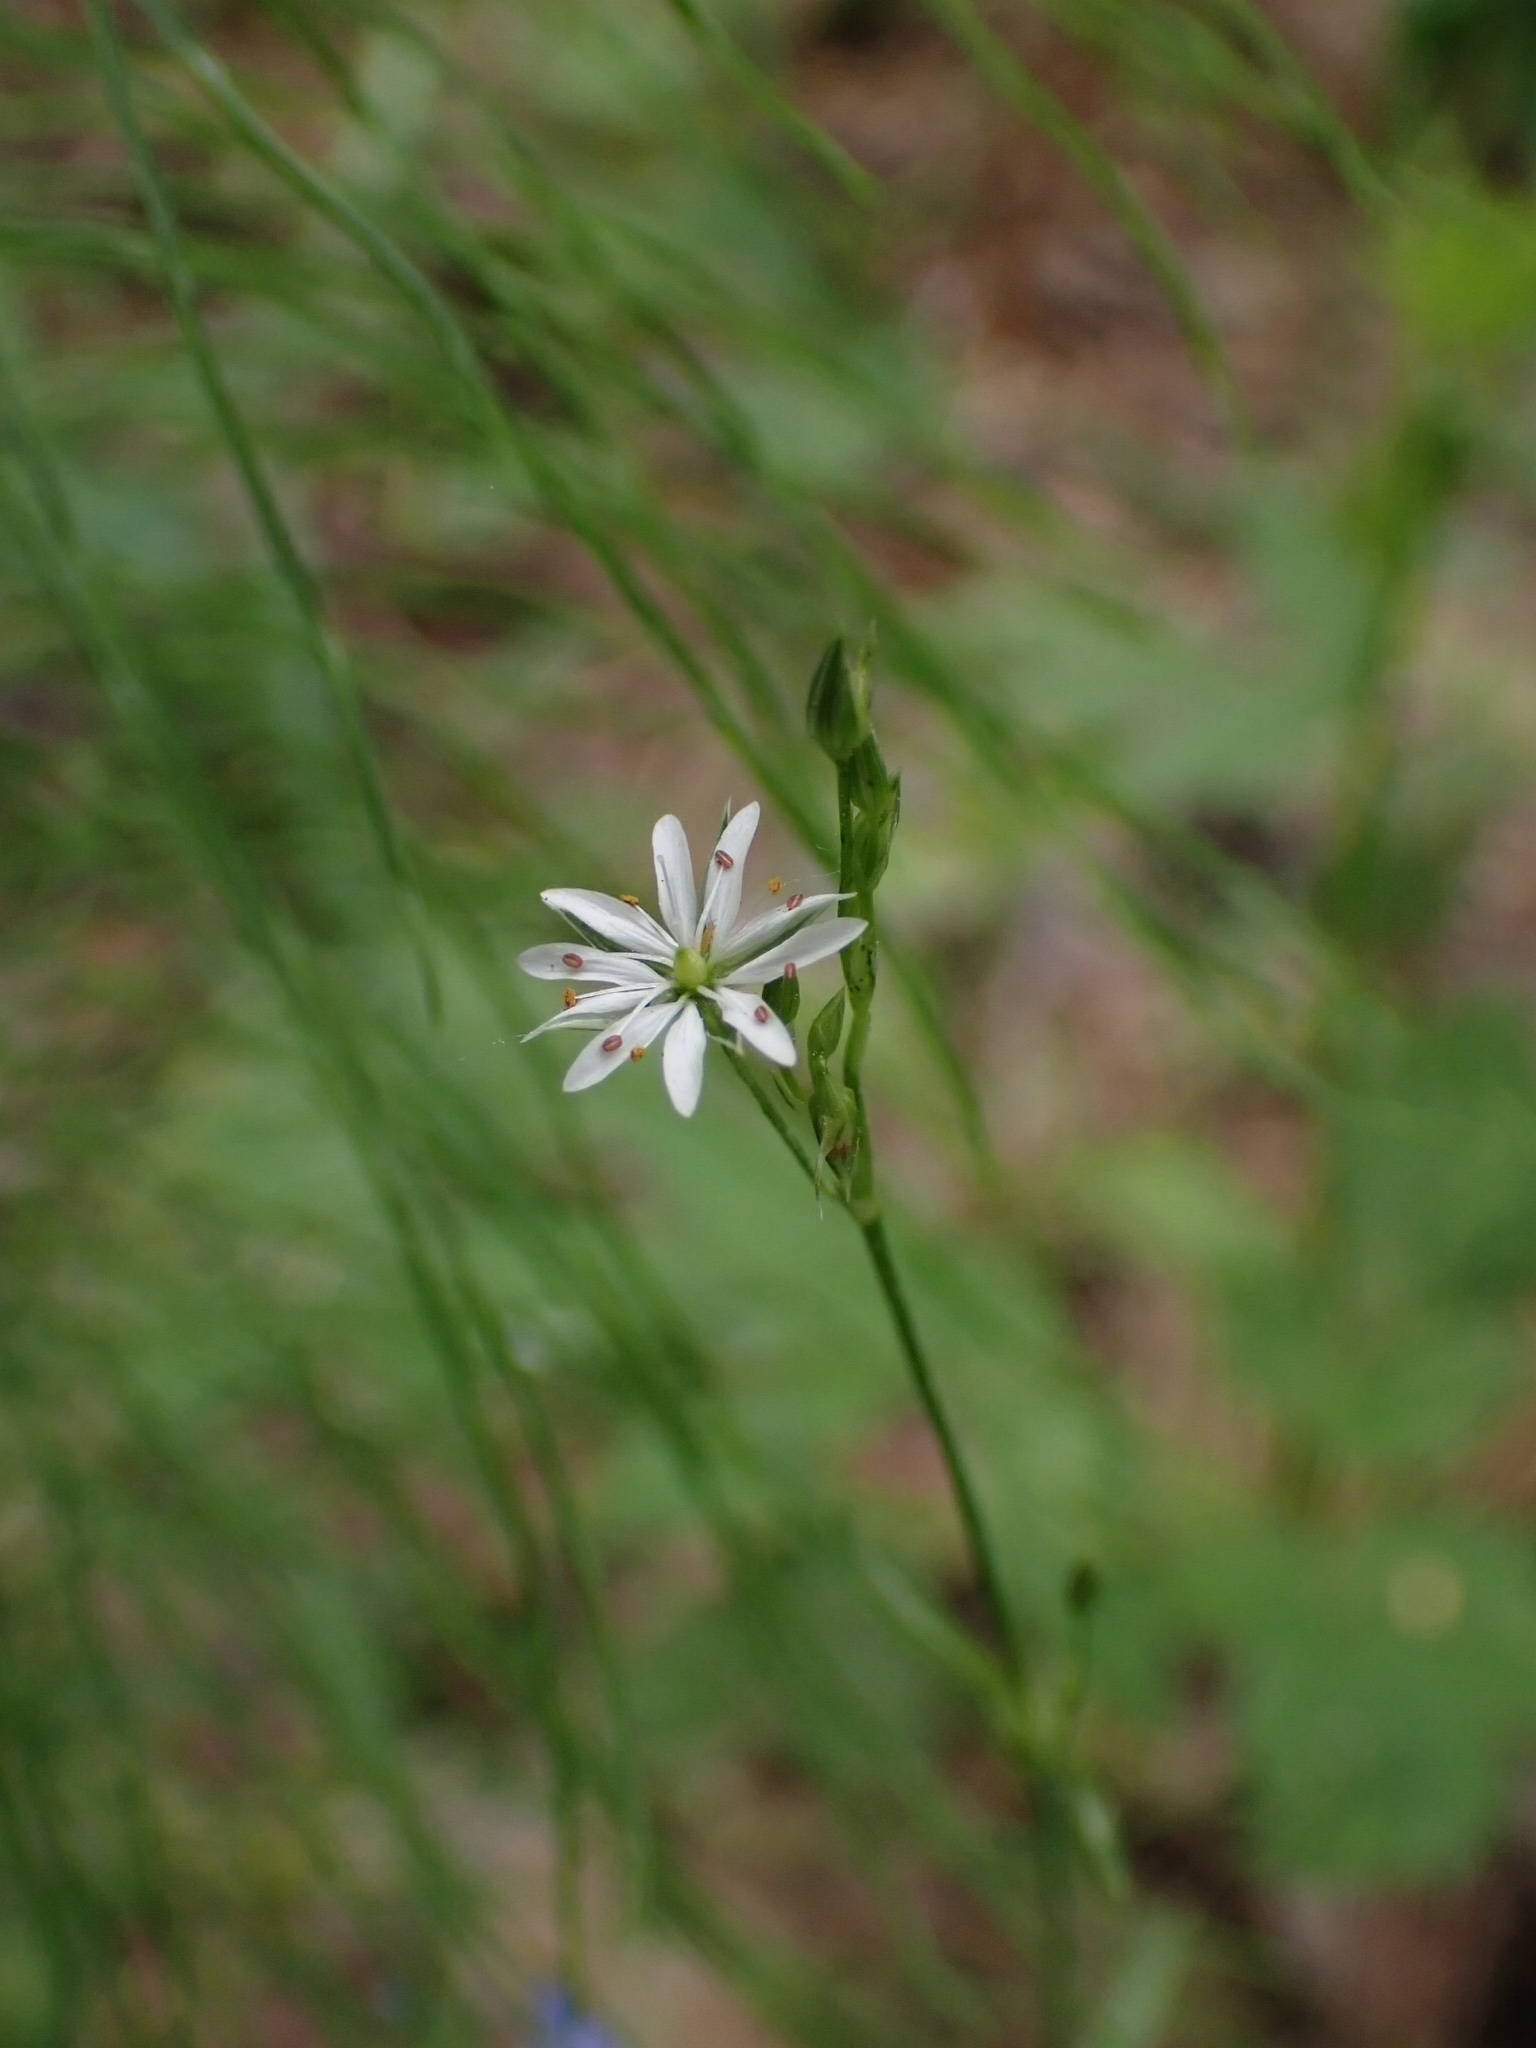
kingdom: Plantae
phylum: Tracheophyta
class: Magnoliopsida
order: Caryophyllales
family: Caryophyllaceae
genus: Stellaria
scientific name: Stellaria graminea
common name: Grass-like starwort
